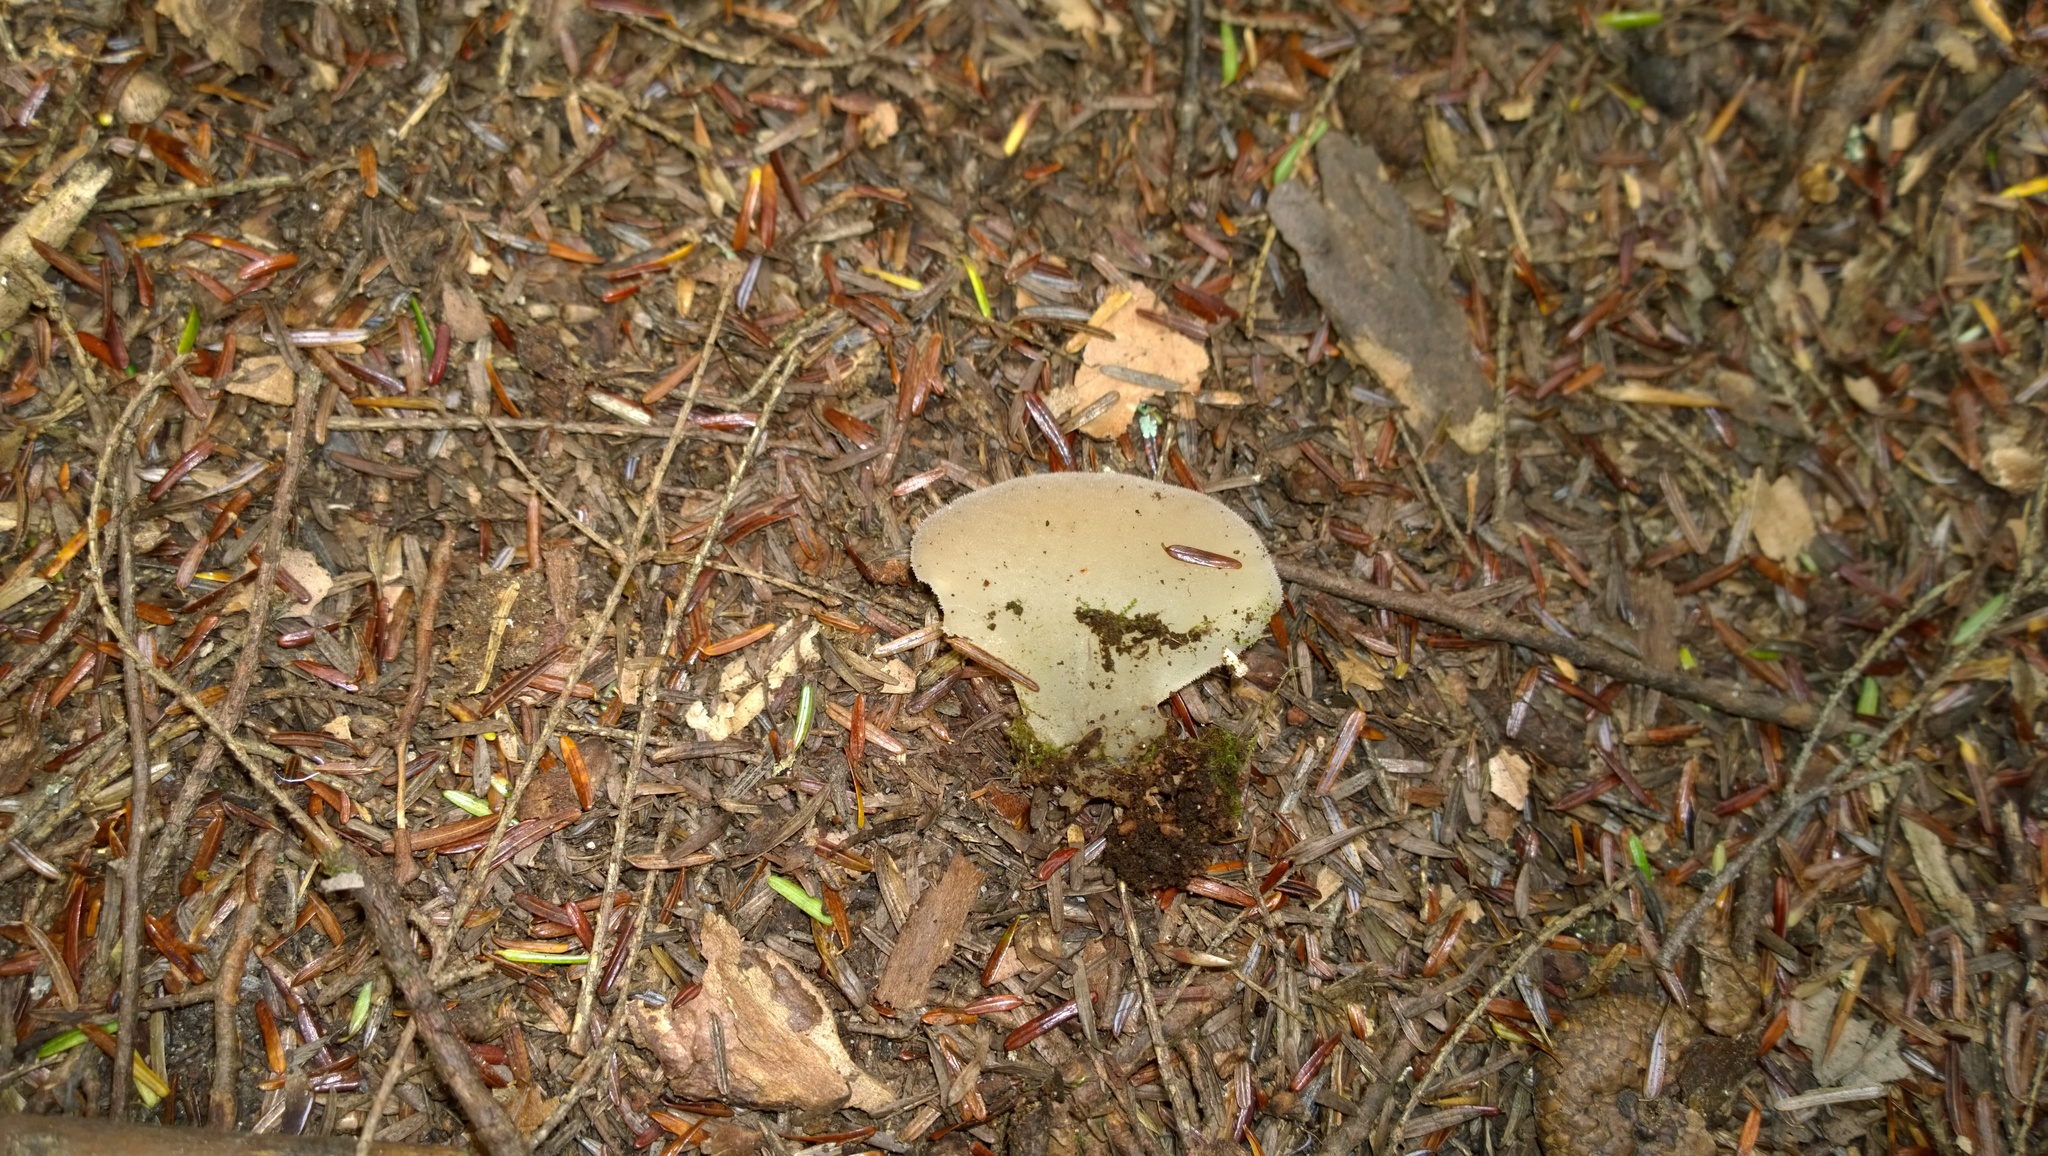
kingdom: Fungi
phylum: Basidiomycota
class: Agaricomycetes
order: Auriculariales
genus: Pseudohydnum
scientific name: Pseudohydnum gelatinosum
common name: Jelly tongue
